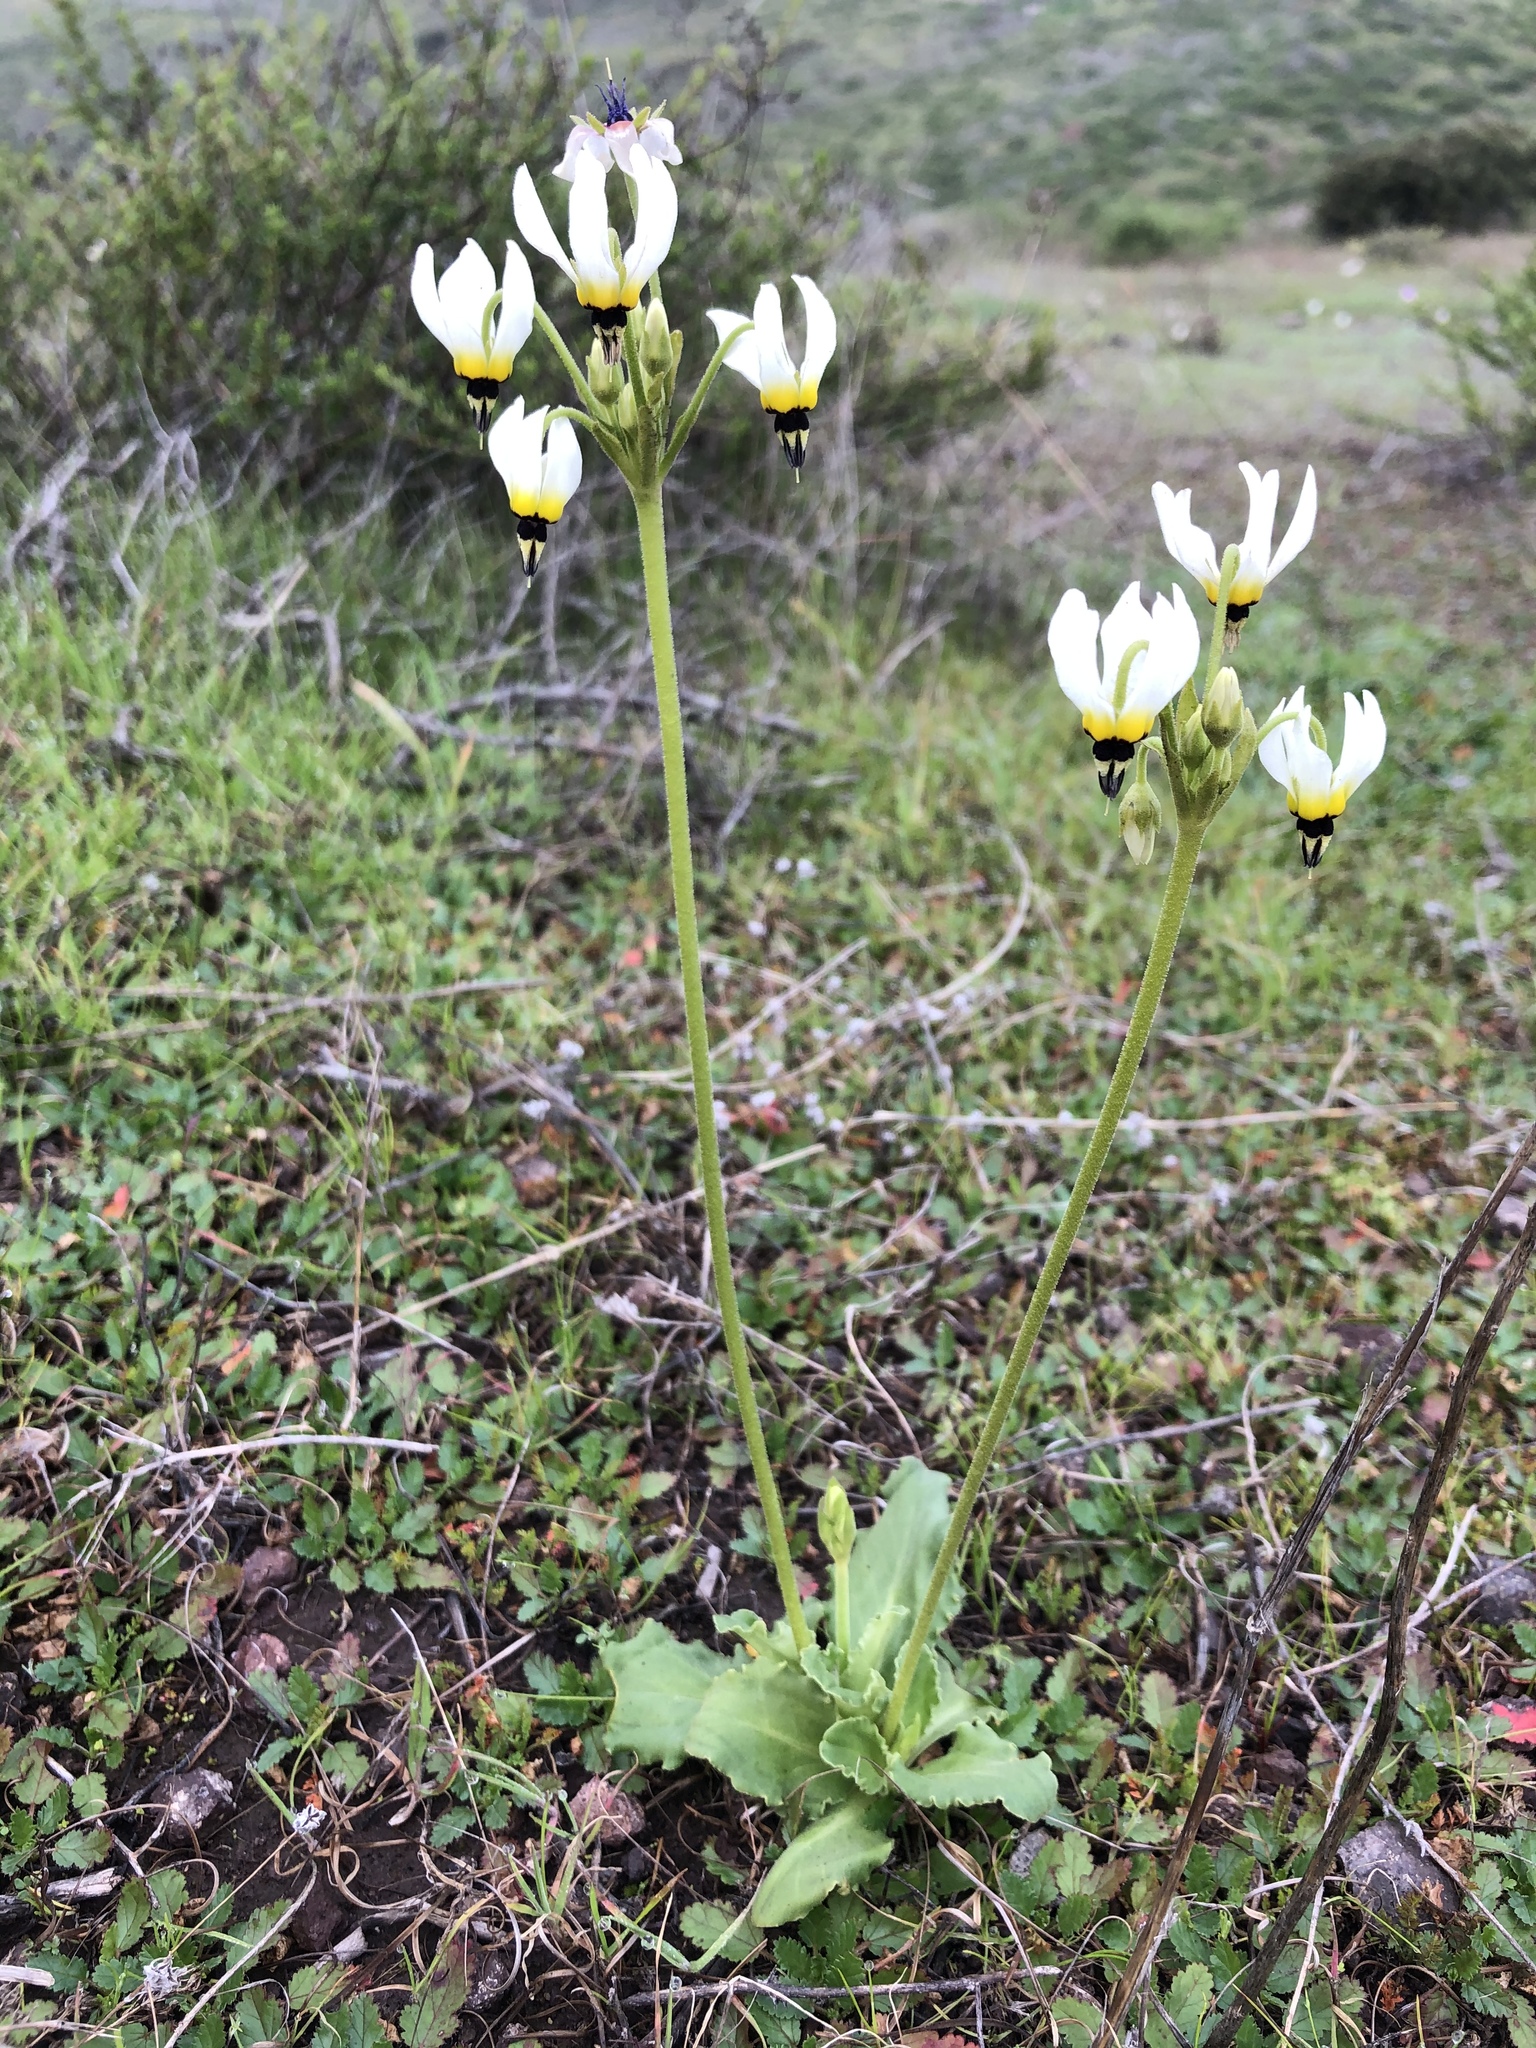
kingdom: Plantae
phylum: Tracheophyta
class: Magnoliopsida
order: Ericales
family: Primulaceae
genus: Dodecatheon
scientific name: Dodecatheon clevelandii
